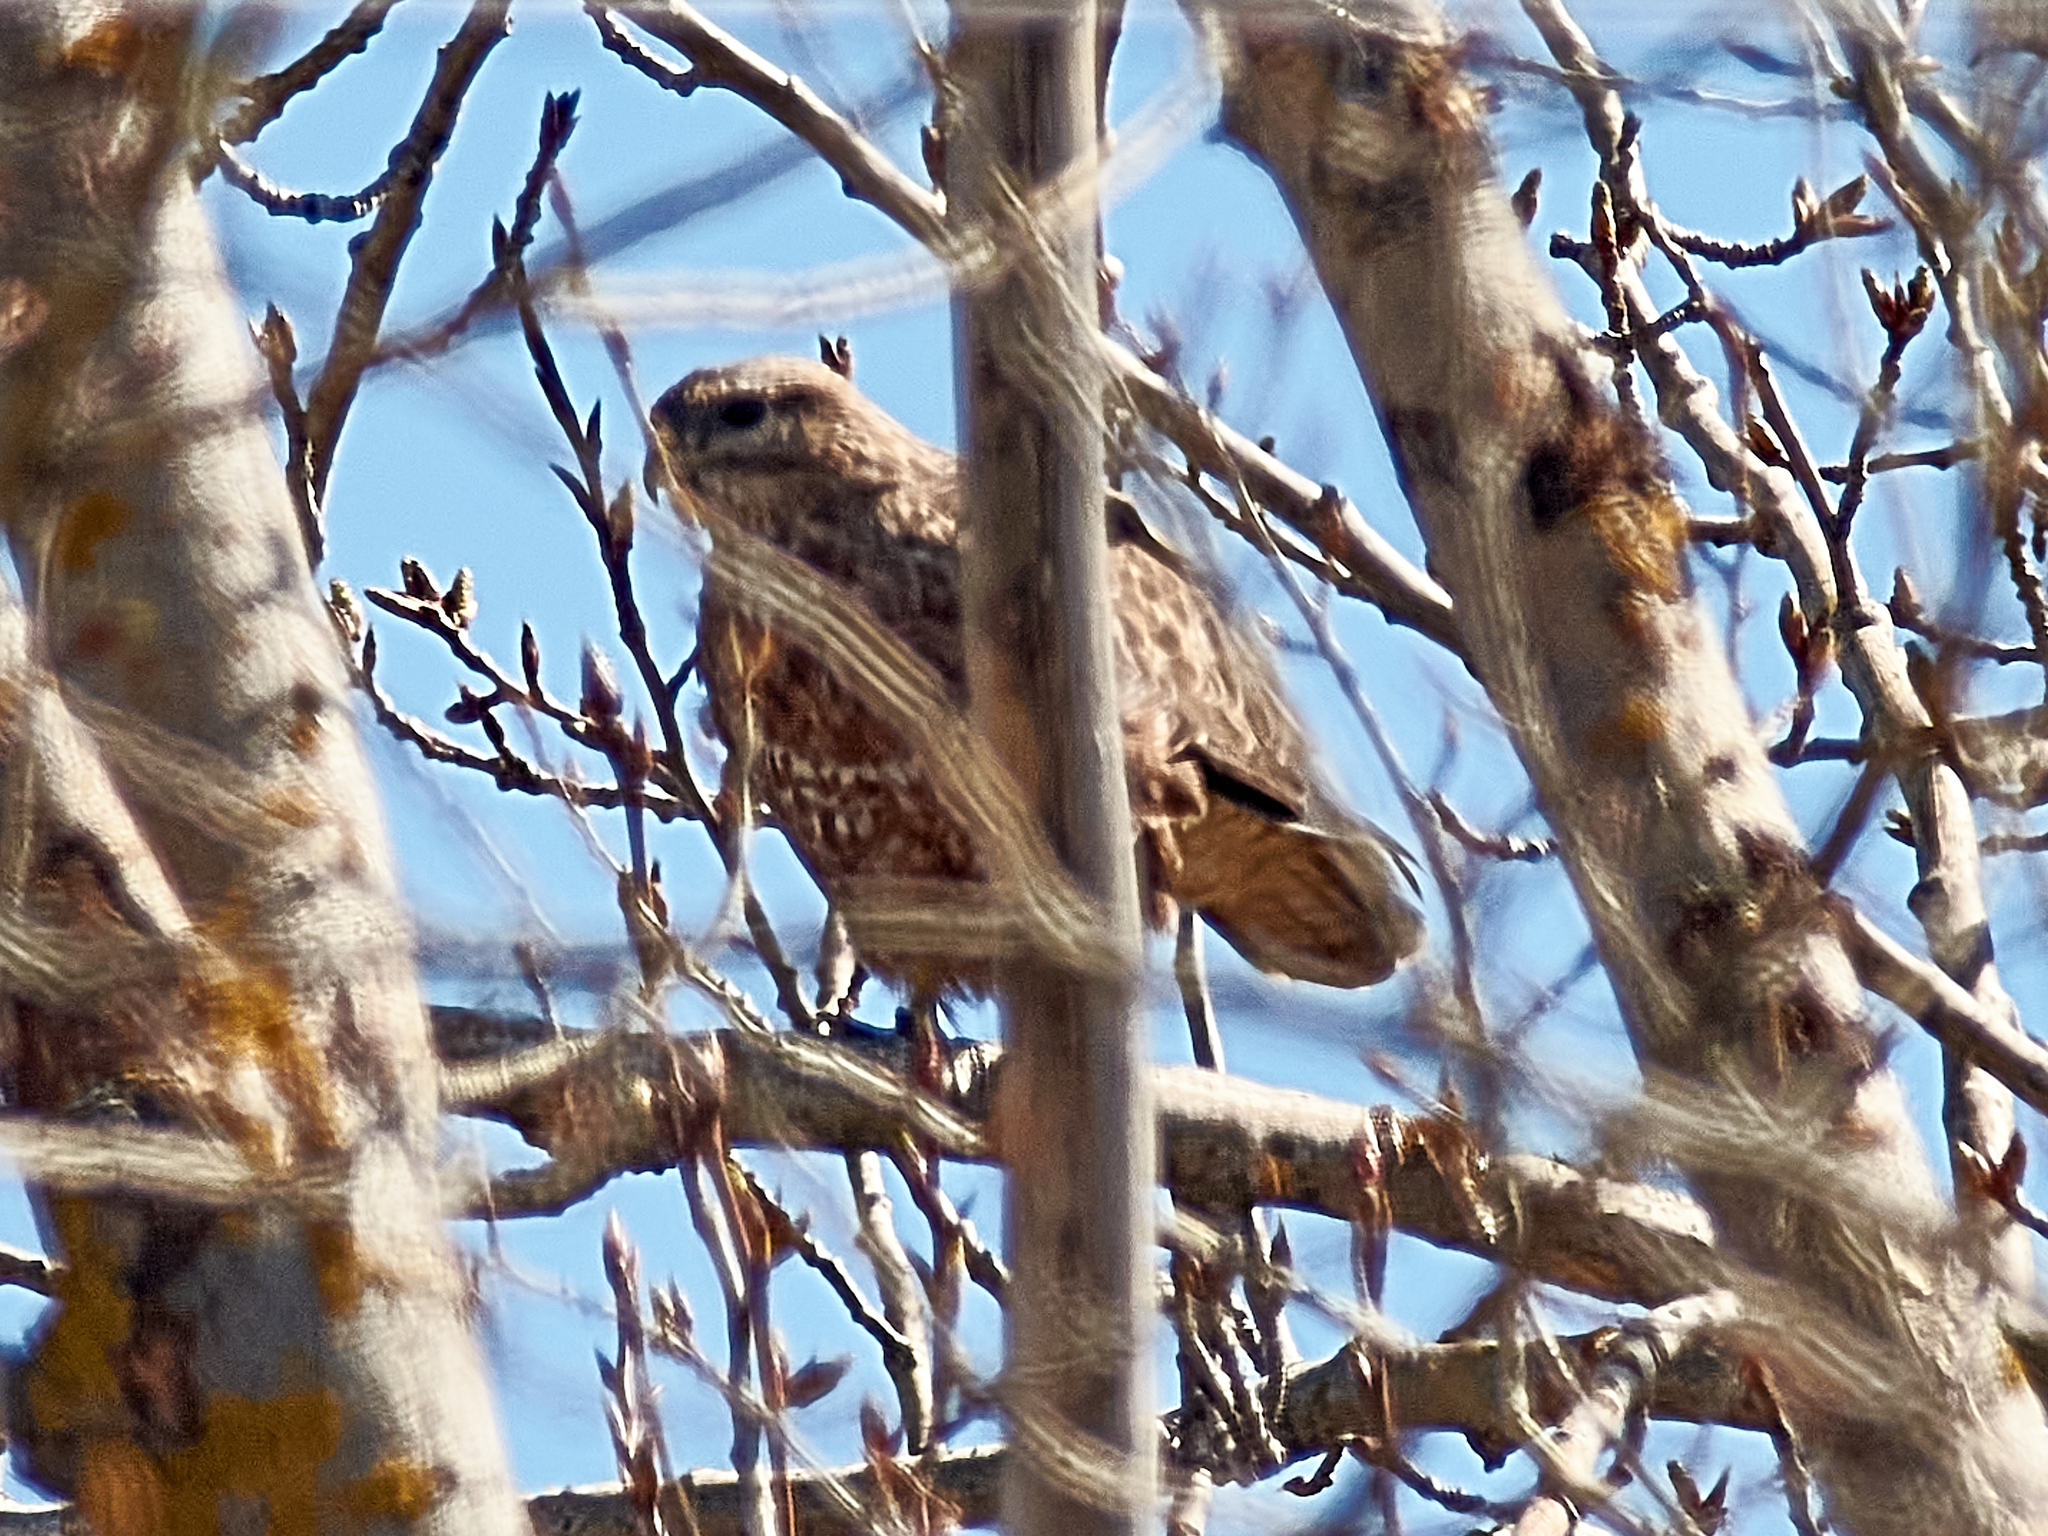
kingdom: Animalia
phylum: Chordata
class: Aves
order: Accipitriformes
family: Accipitridae
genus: Buteo
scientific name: Buteo buteo
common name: Common buzzard
